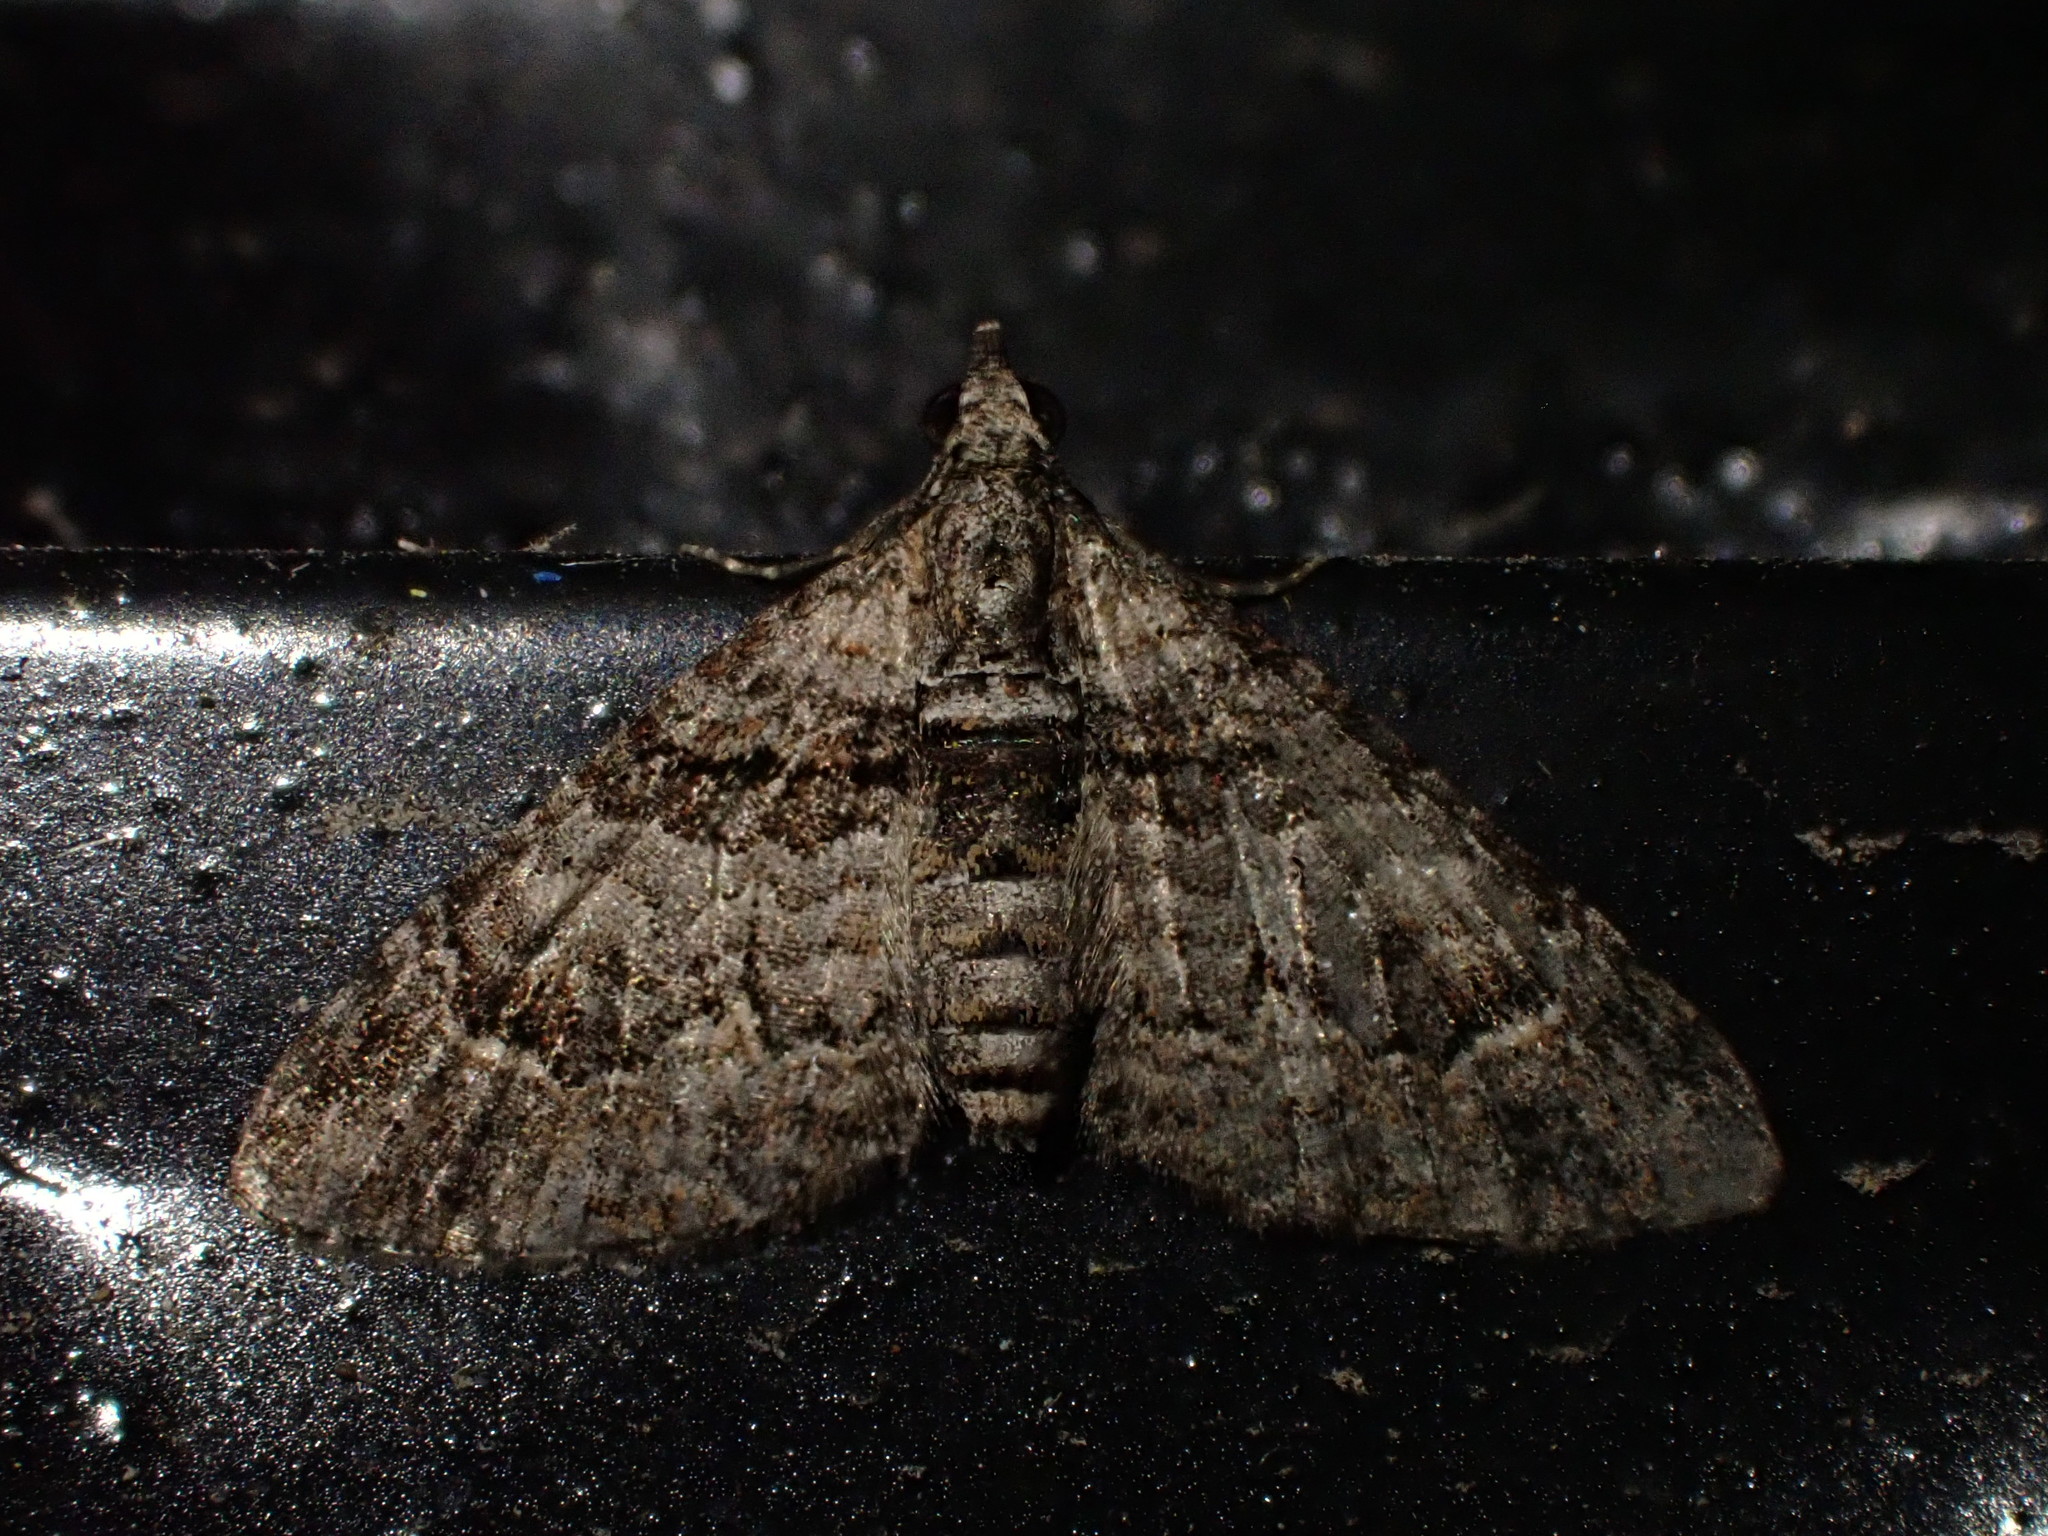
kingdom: Animalia
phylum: Arthropoda
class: Insecta
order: Lepidoptera
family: Geometridae
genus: Phrissogonus
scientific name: Phrissogonus laticostata
